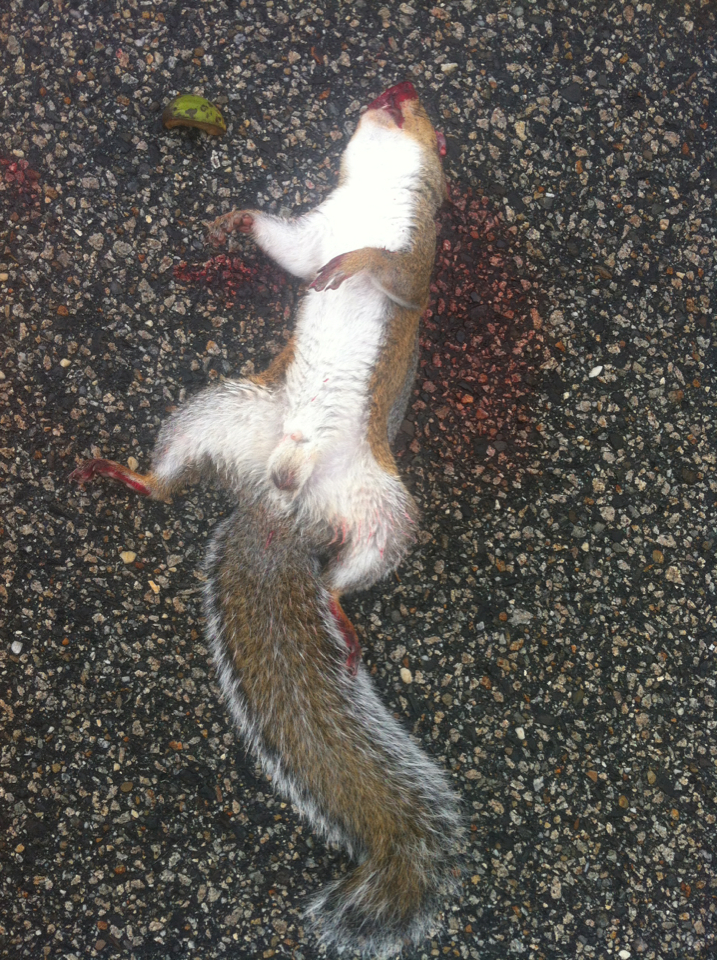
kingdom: Animalia
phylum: Chordata
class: Mammalia
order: Rodentia
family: Sciuridae
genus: Sciurus
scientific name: Sciurus carolinensis
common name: Eastern gray squirrel
